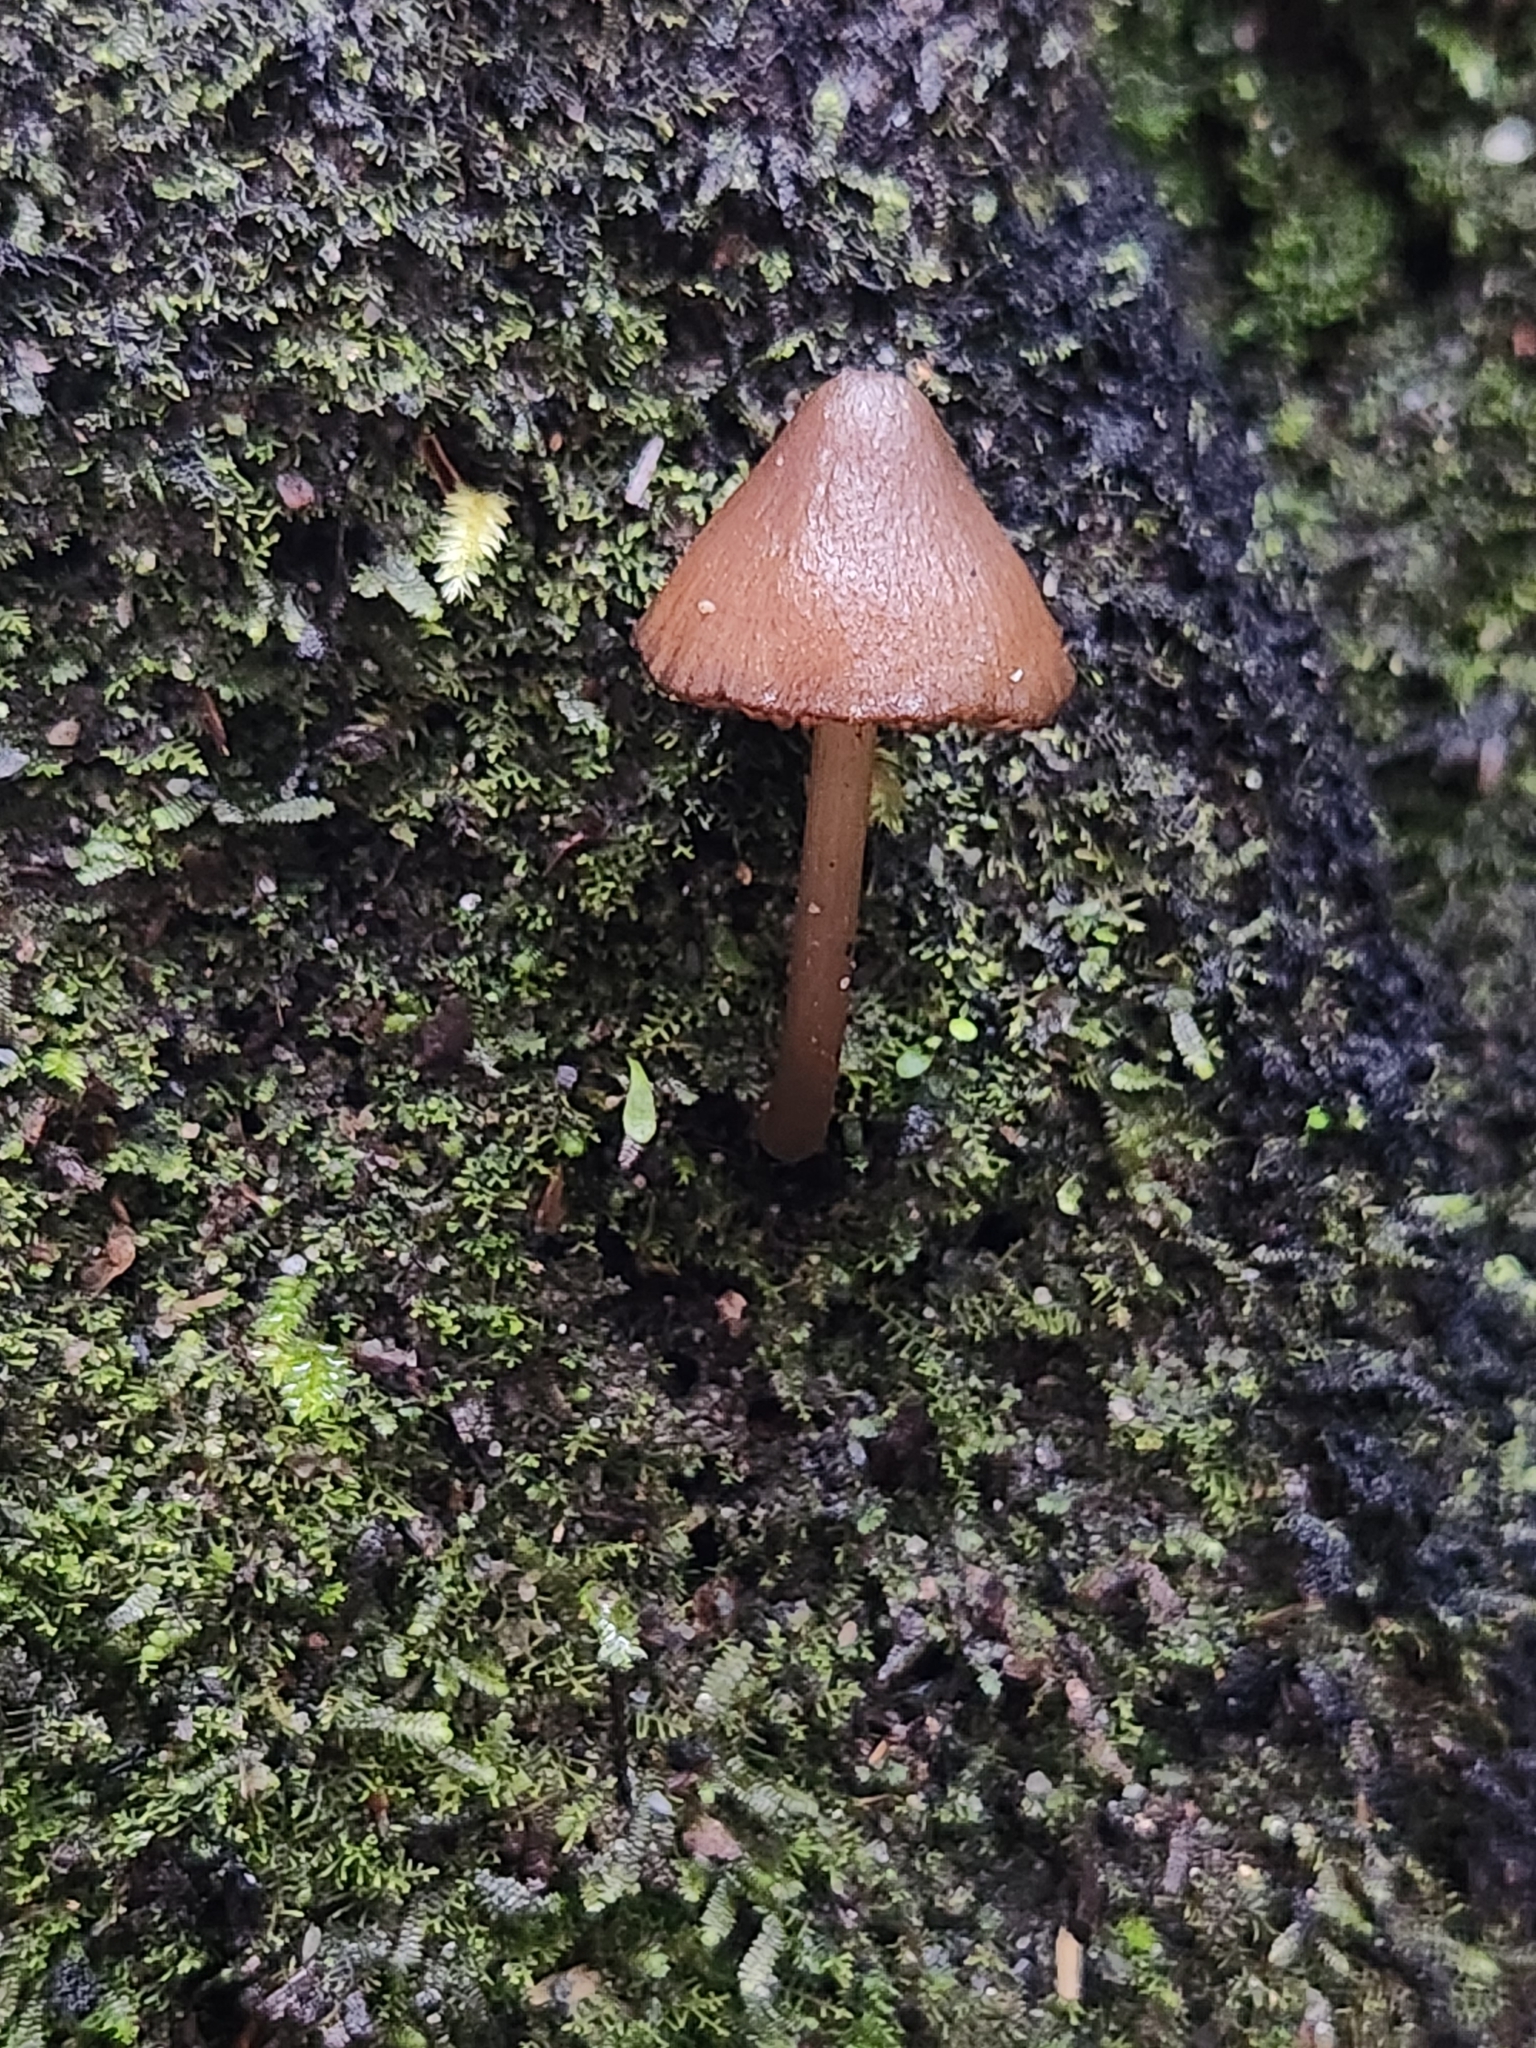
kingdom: Fungi
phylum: Basidiomycota
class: Agaricomycetes
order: Agaricales
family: Entolomataceae
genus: Entoloma
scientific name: Entoloma latericolor
